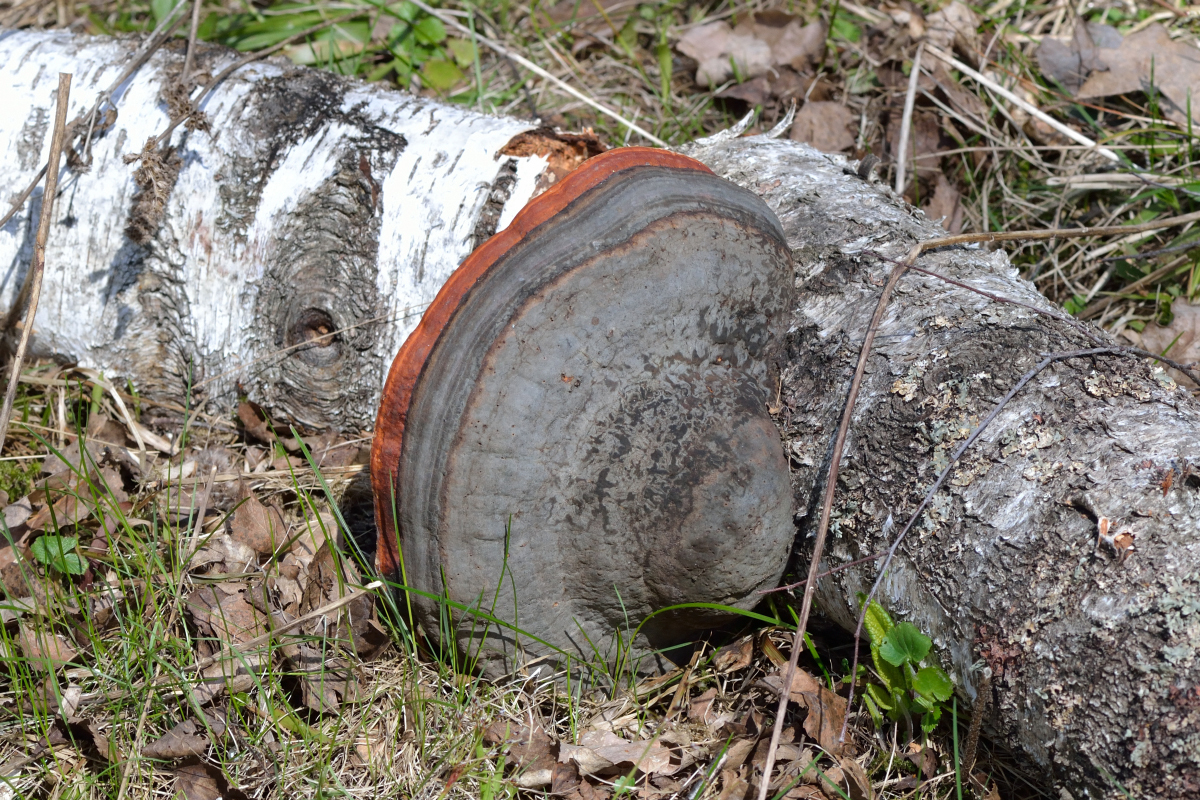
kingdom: Fungi
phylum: Basidiomycota
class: Agaricomycetes
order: Polyporales
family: Fomitopsidaceae
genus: Fomitopsis
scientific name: Fomitopsis pinicola
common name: Red-belted bracket
